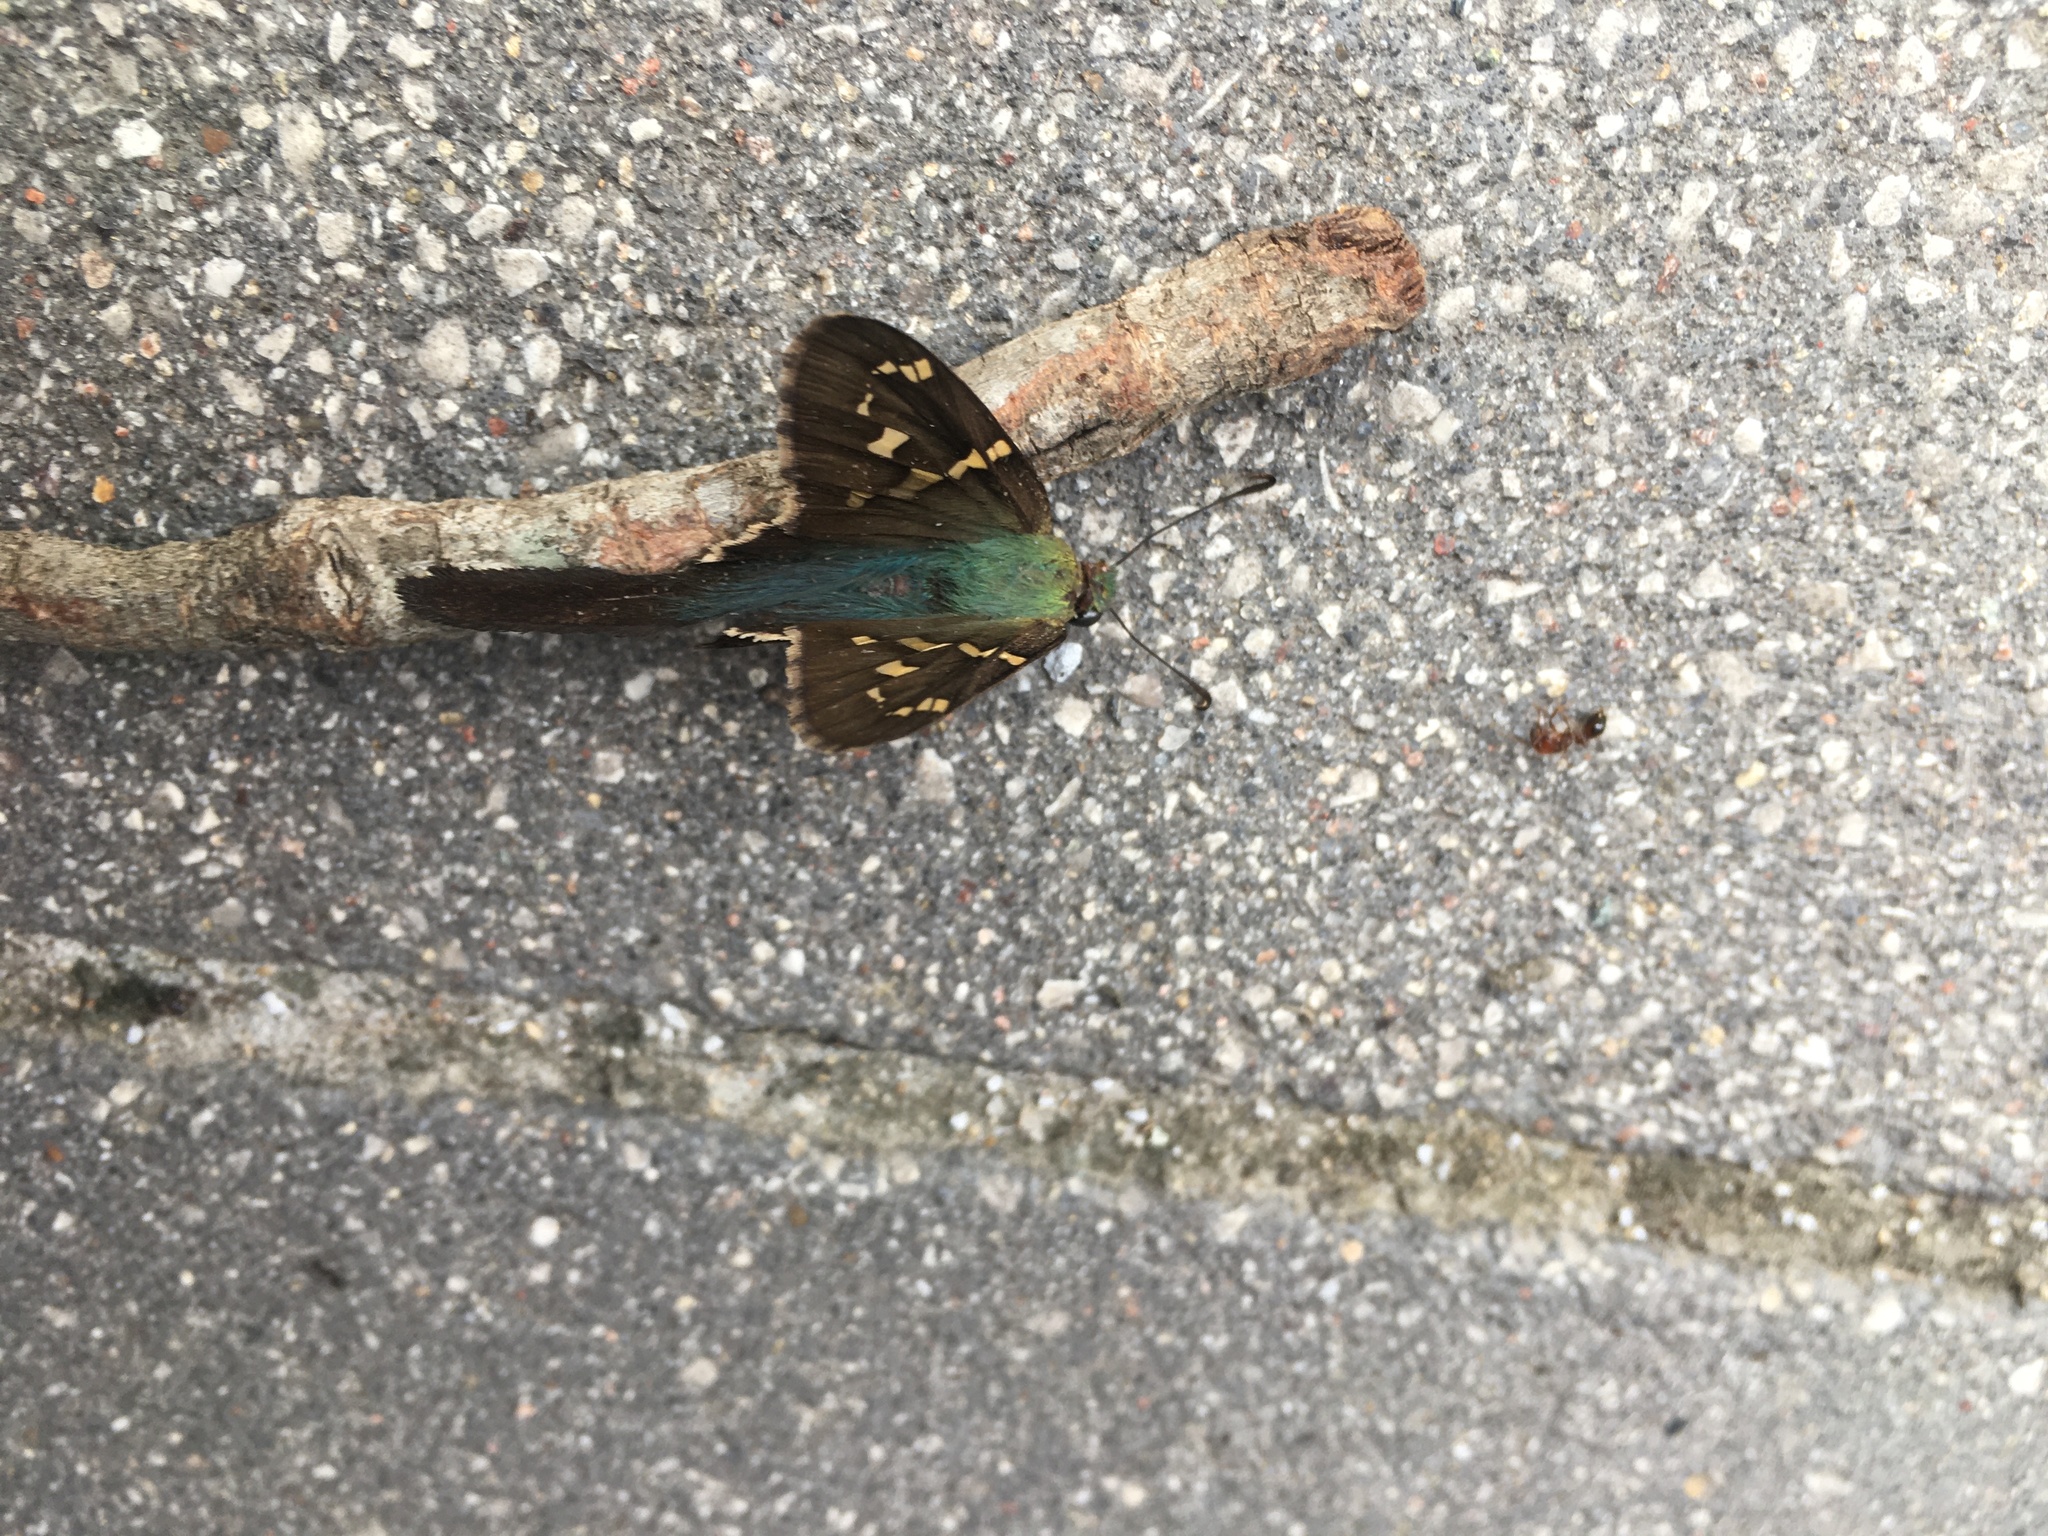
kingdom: Animalia
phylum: Arthropoda
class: Insecta
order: Lepidoptera
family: Hesperiidae
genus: Urbanus
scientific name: Urbanus proteus
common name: Long-tailed skipper
